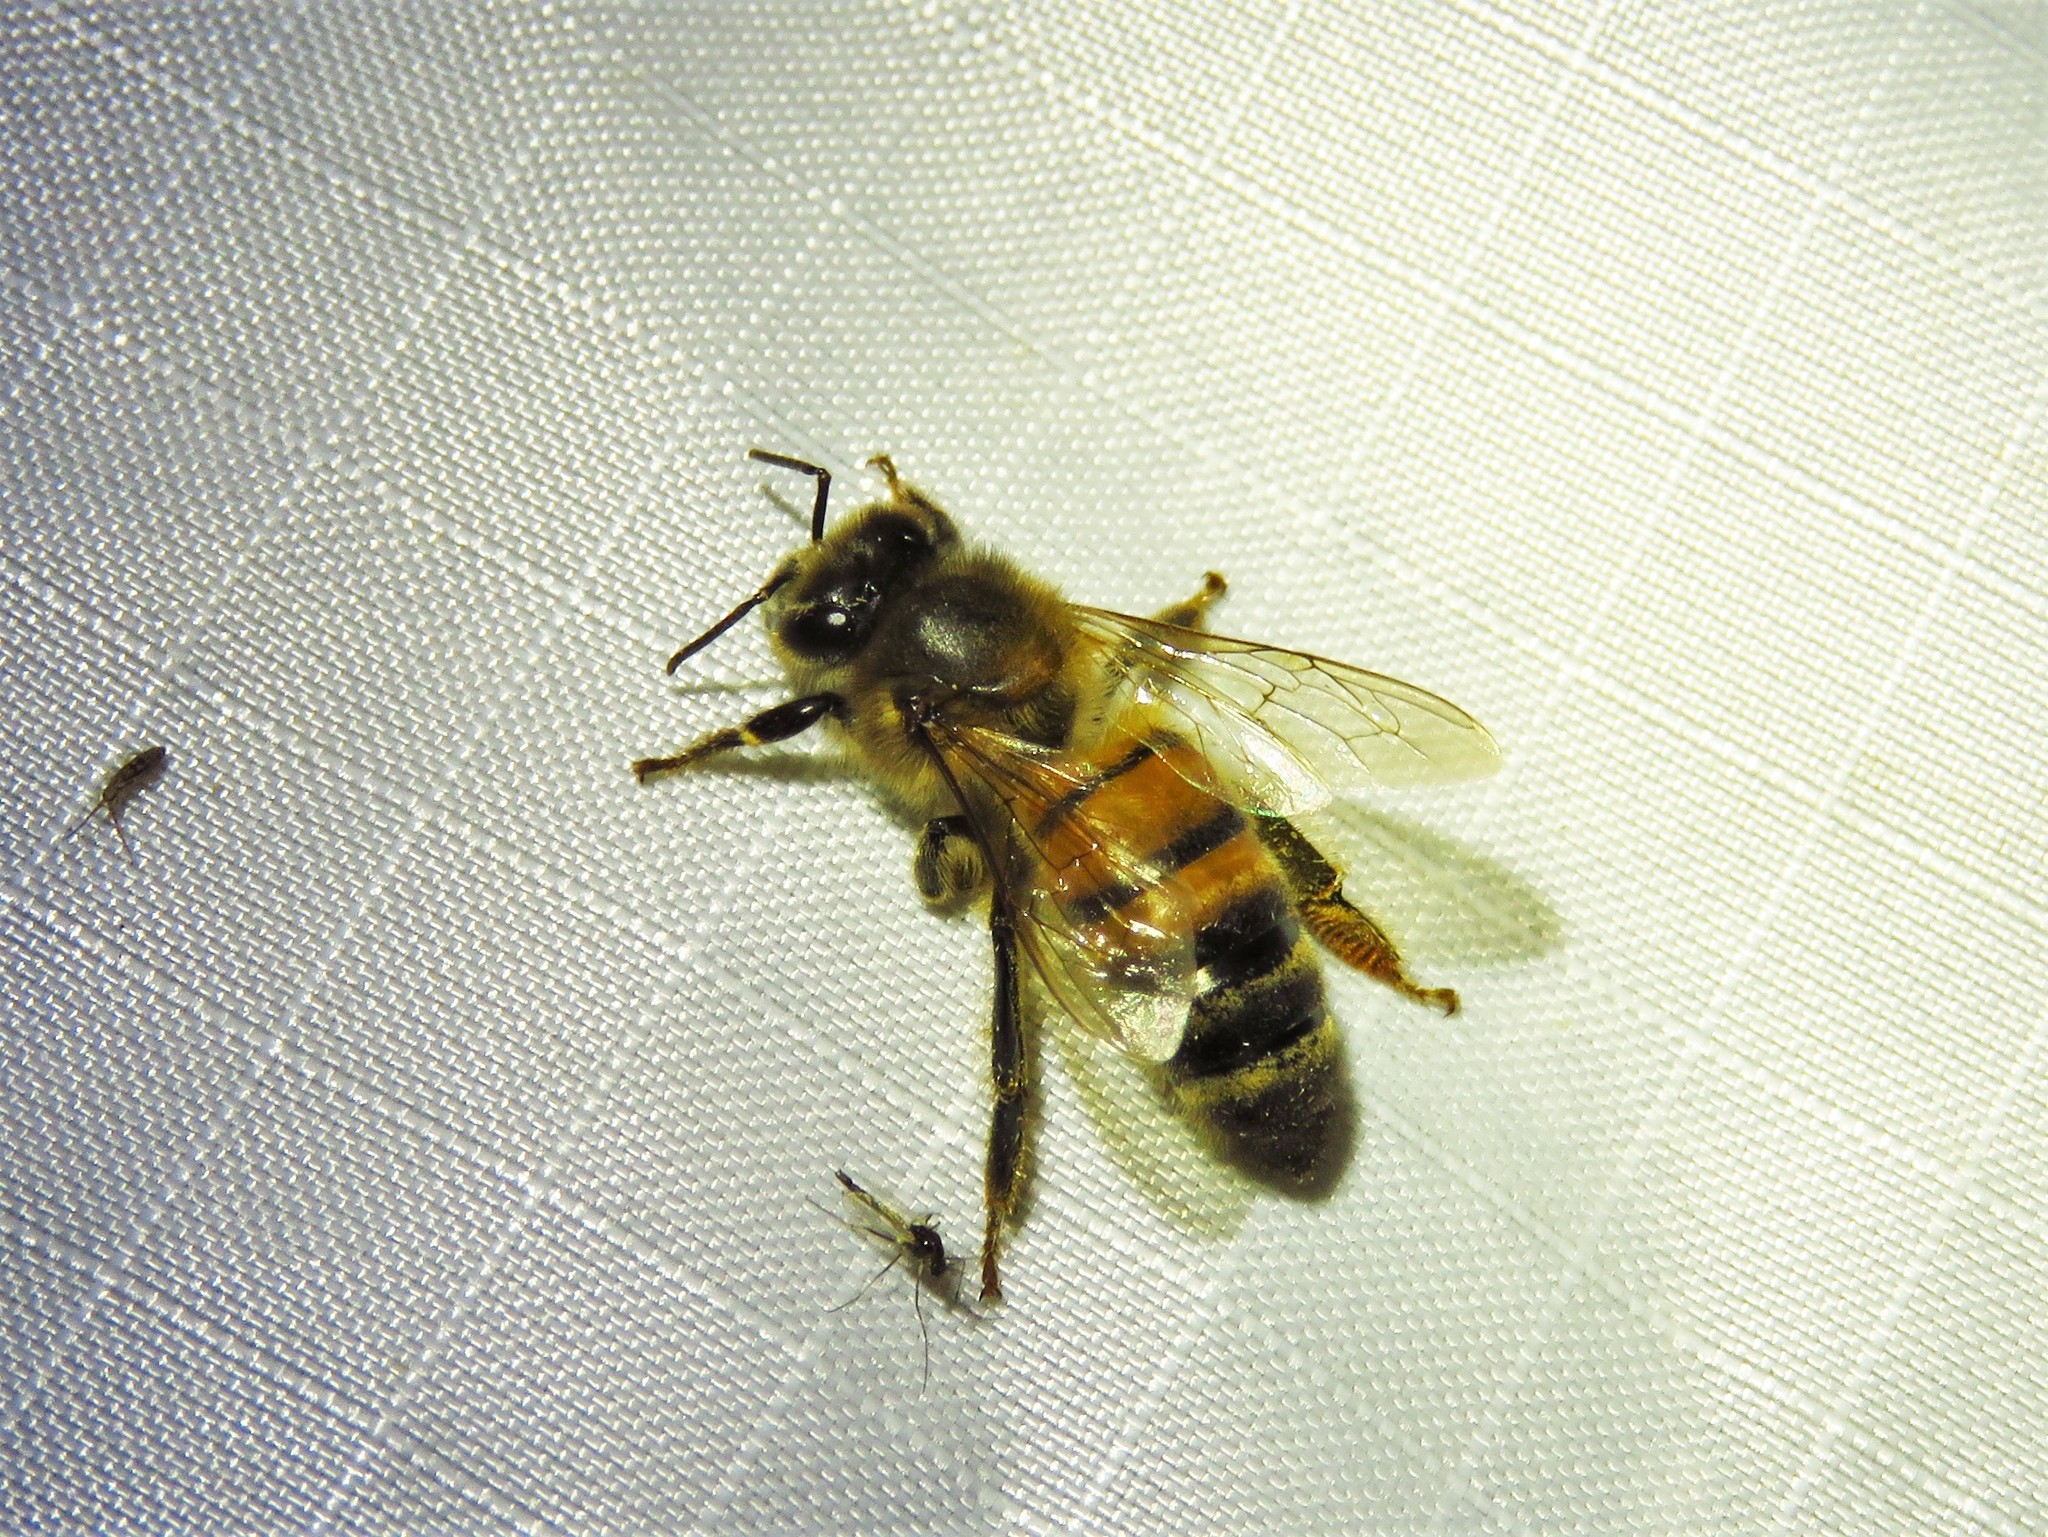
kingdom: Animalia
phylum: Arthropoda
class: Insecta
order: Hymenoptera
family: Apidae
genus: Apis
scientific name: Apis mellifera
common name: Honey bee
